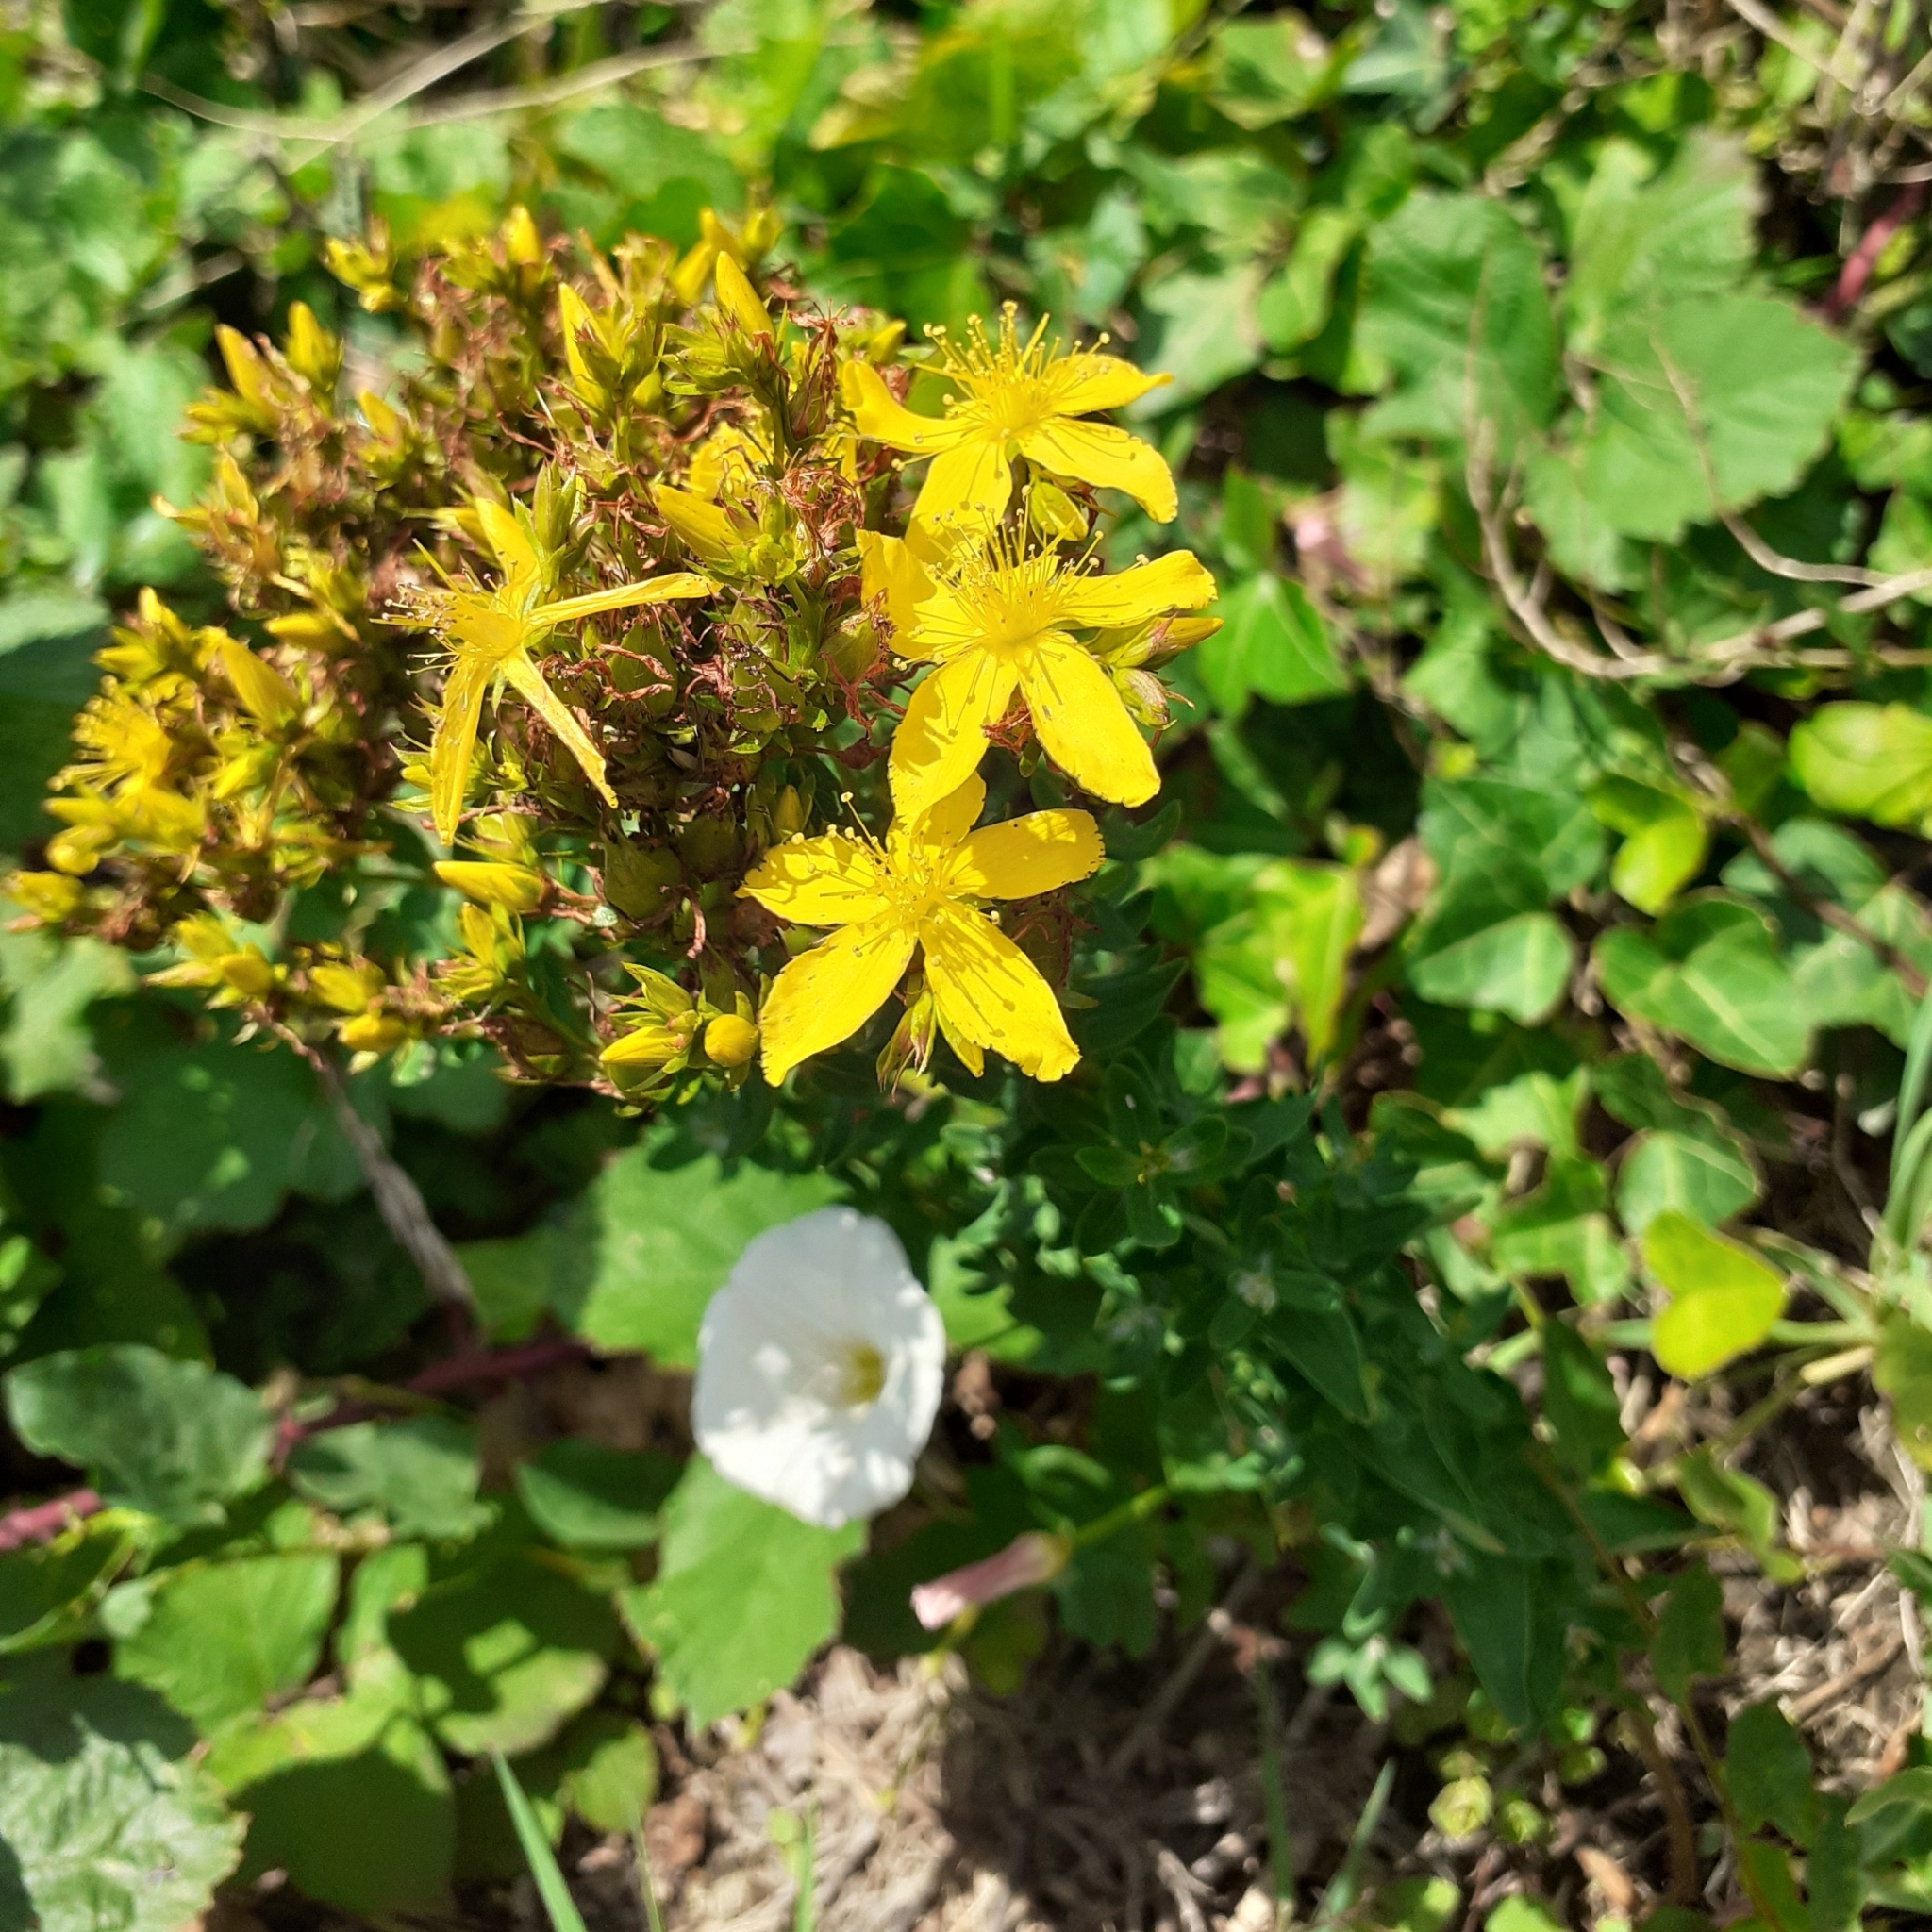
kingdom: Plantae
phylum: Tracheophyta
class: Magnoliopsida
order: Malpighiales
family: Hypericaceae
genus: Hypericum
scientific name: Hypericum perforatum
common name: Common st. johnswort
